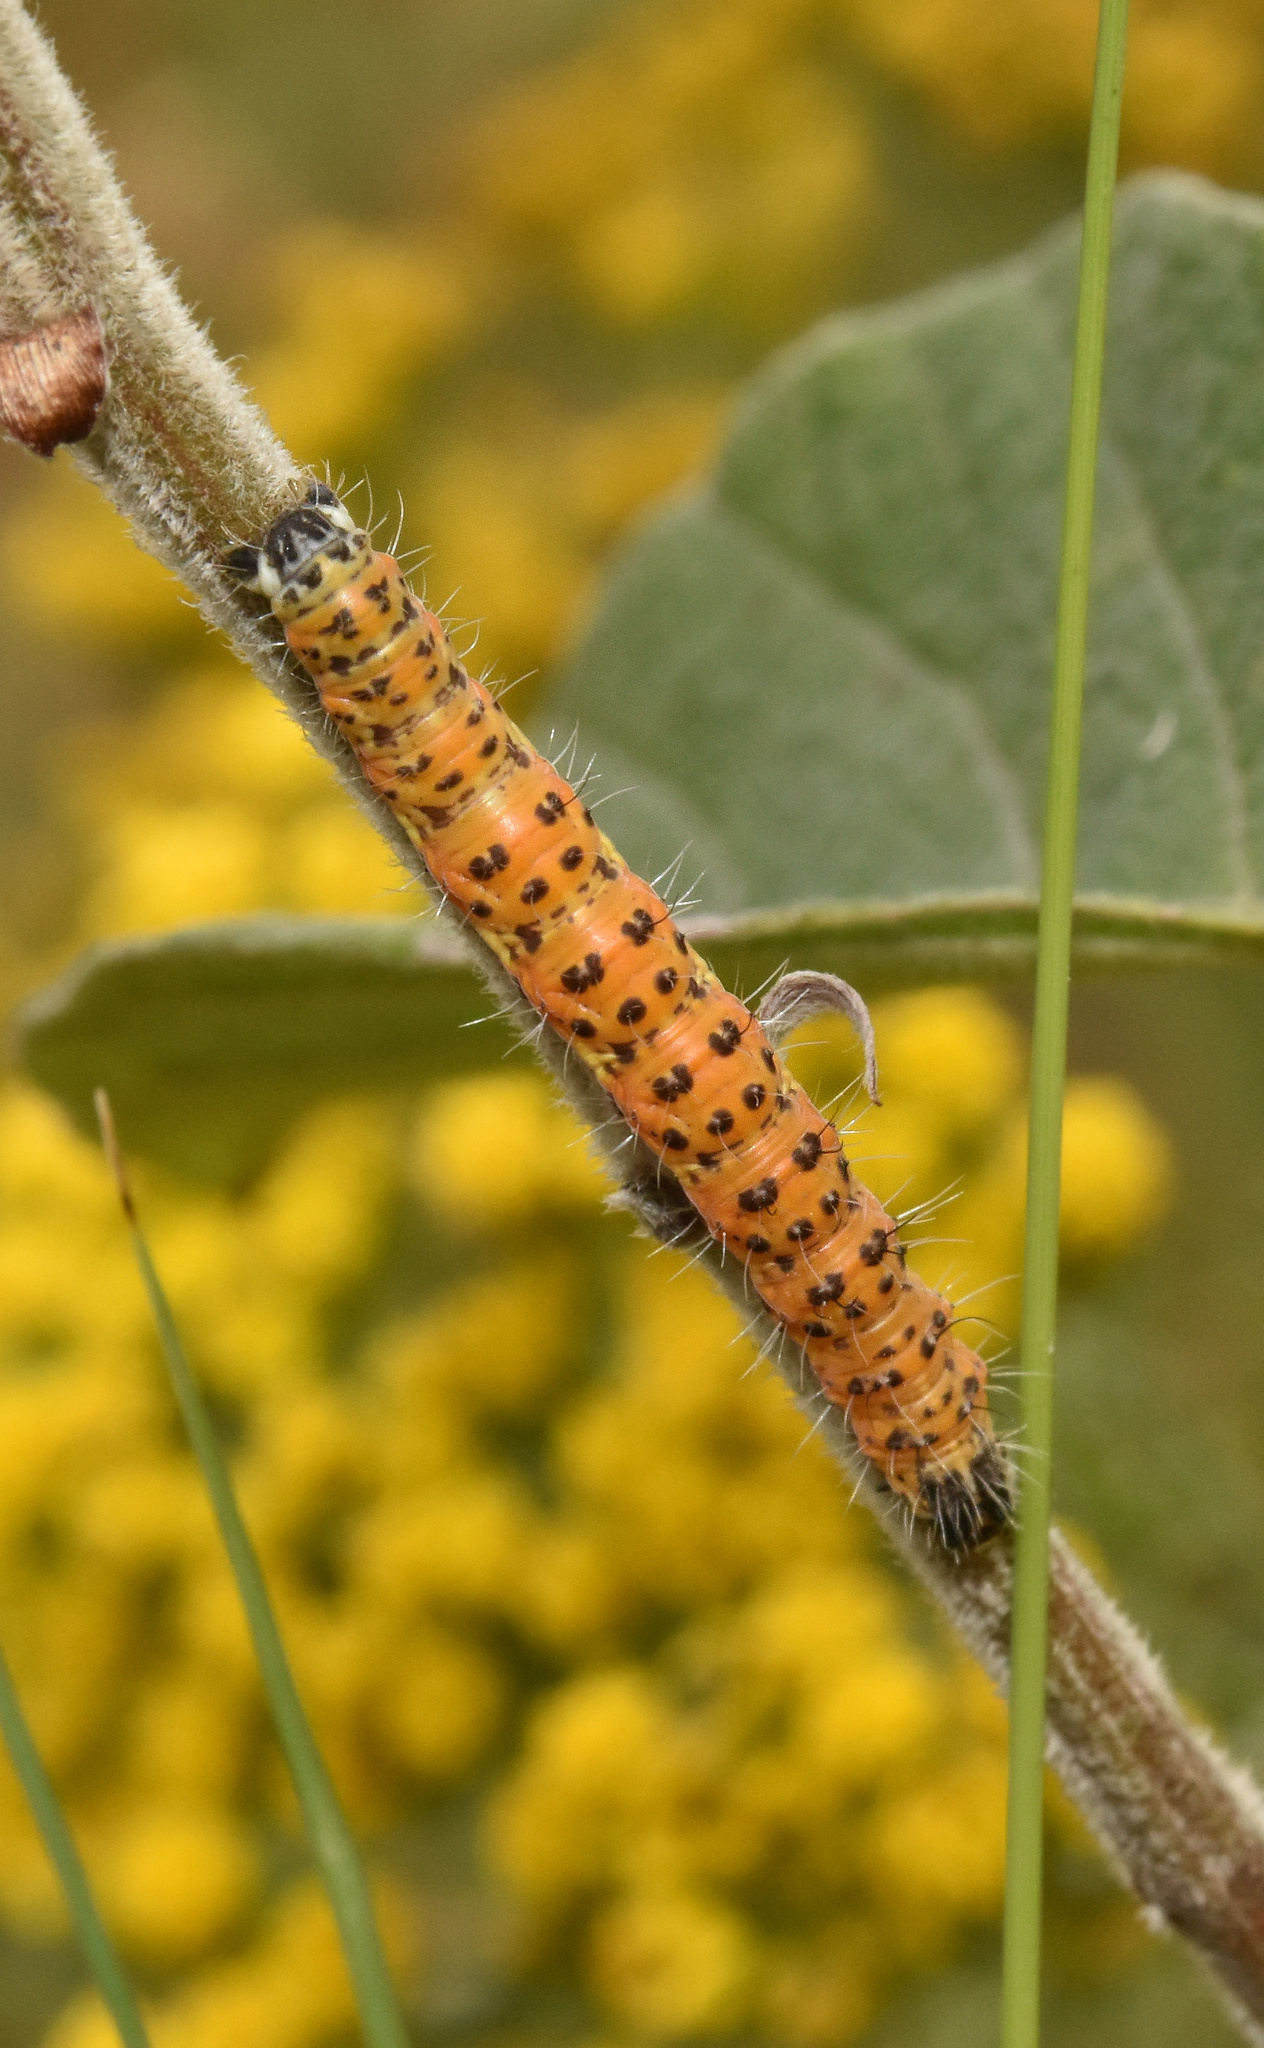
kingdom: Animalia
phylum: Arthropoda
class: Insecta
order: Lepidoptera
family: Geometridae
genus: Durbana
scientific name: Durbana setinata
